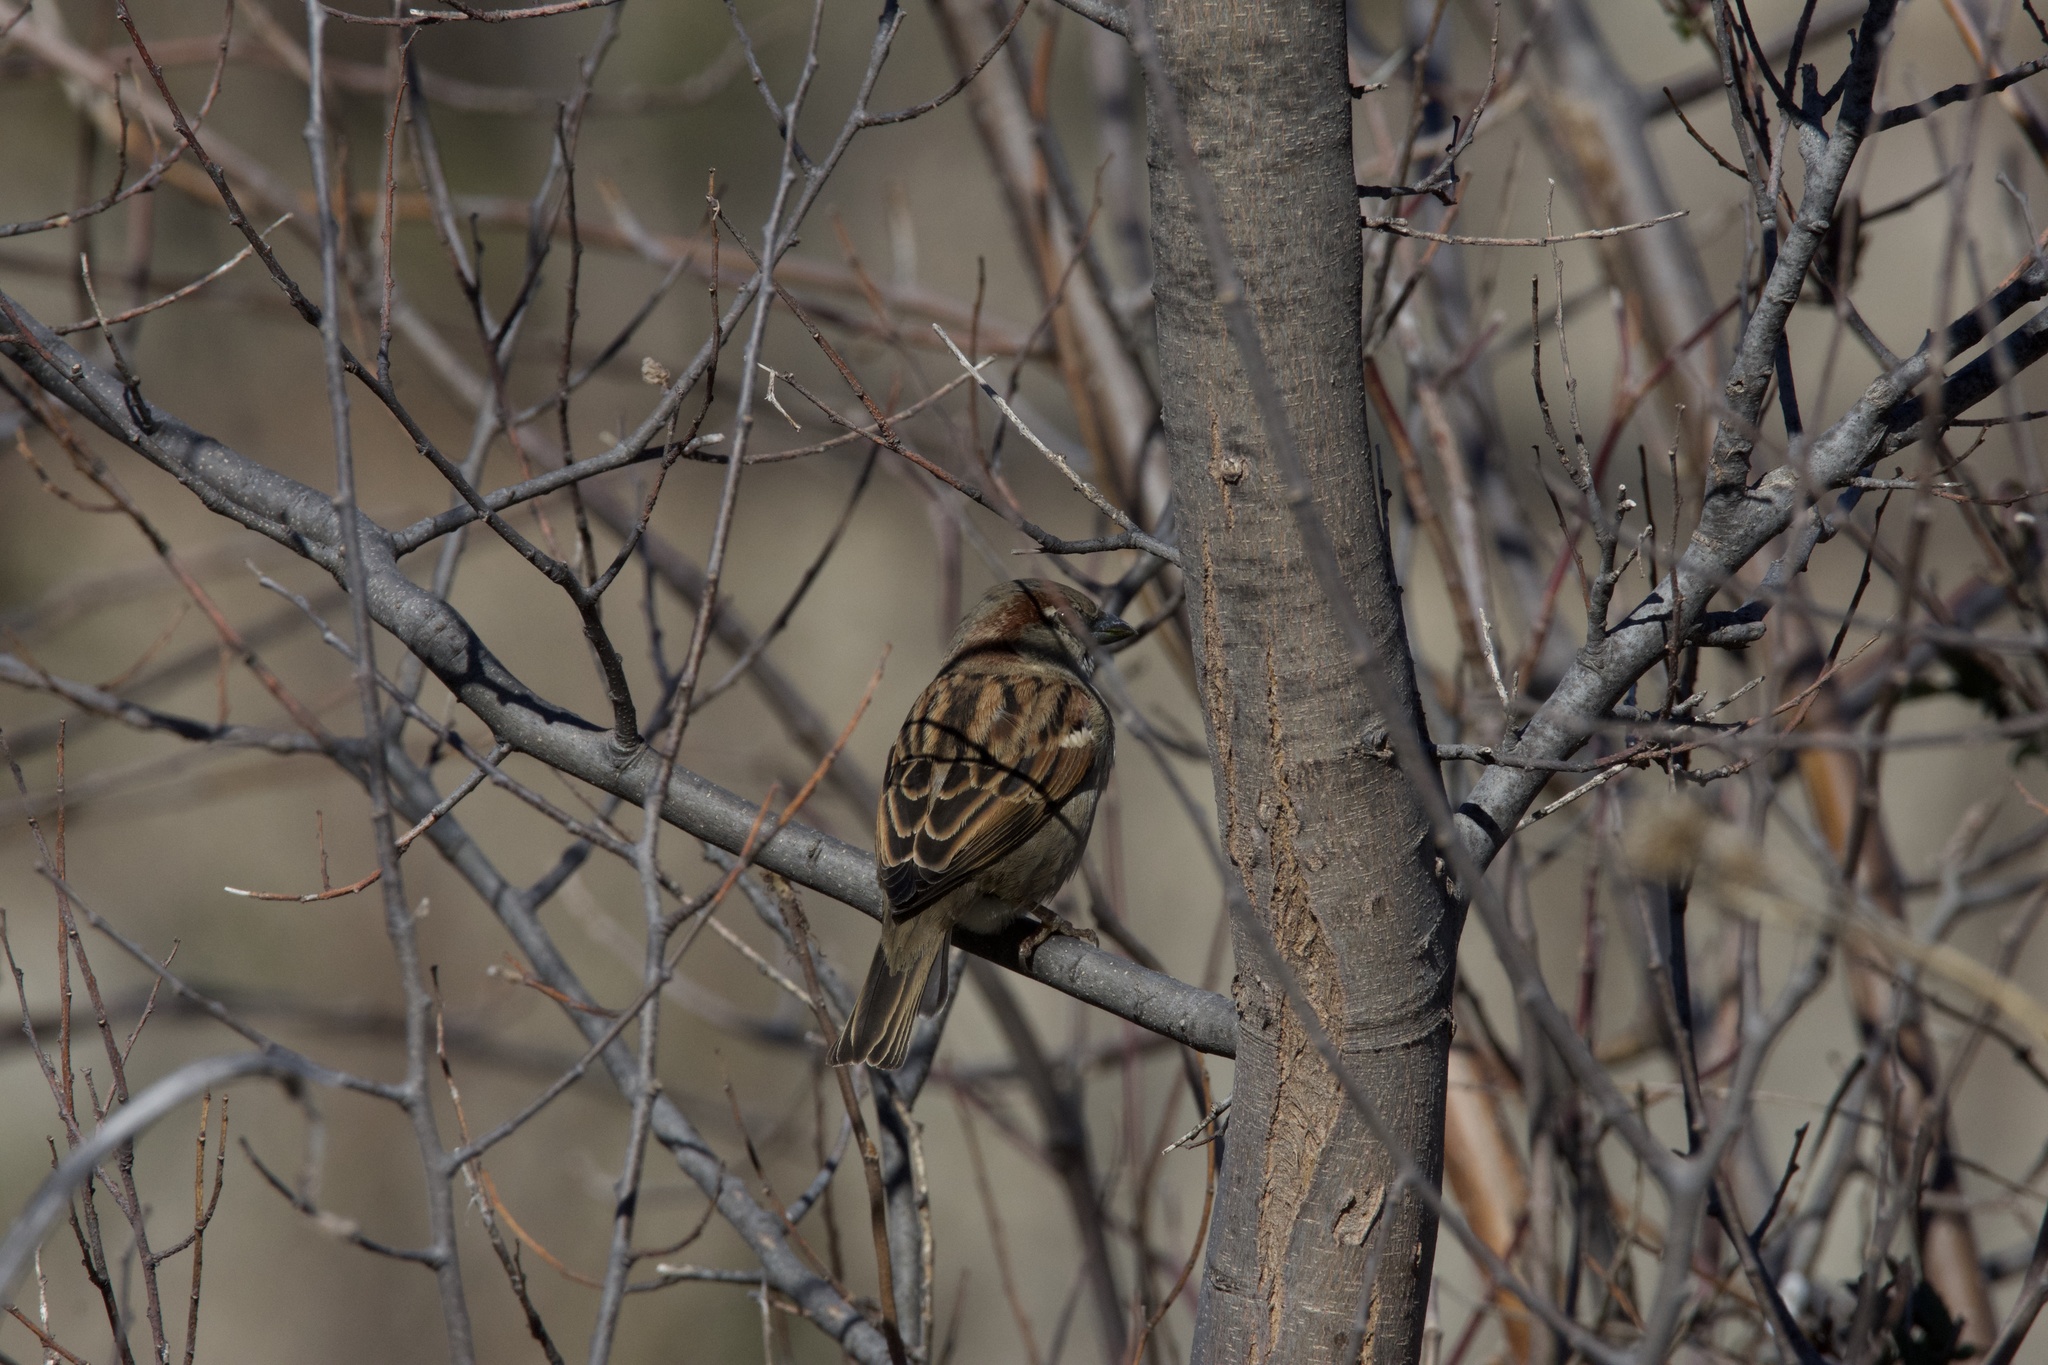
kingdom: Animalia
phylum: Chordata
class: Aves
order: Passeriformes
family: Passeridae
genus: Passer
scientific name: Passer domesticus
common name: House sparrow
